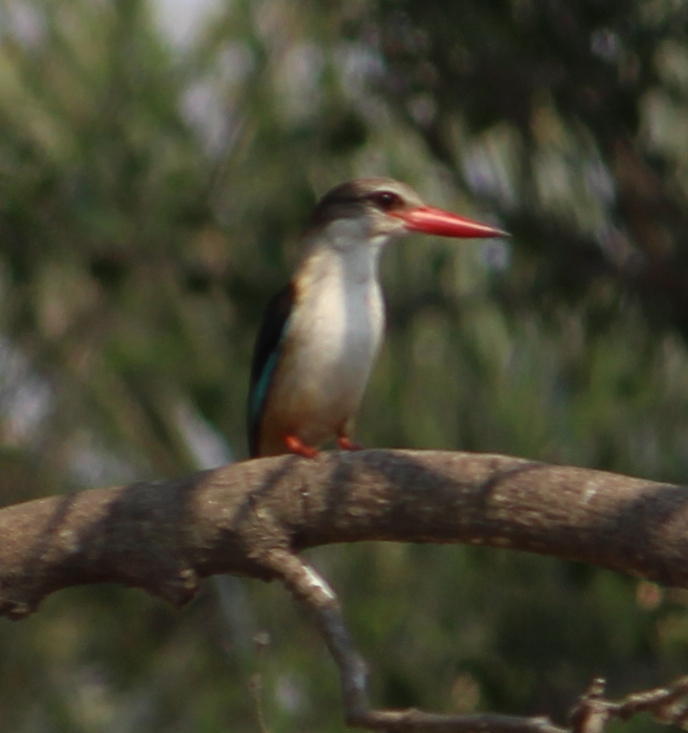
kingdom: Animalia
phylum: Chordata
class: Aves
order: Coraciiformes
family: Alcedinidae
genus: Halcyon
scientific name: Halcyon albiventris
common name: Brown-hooded kingfisher
